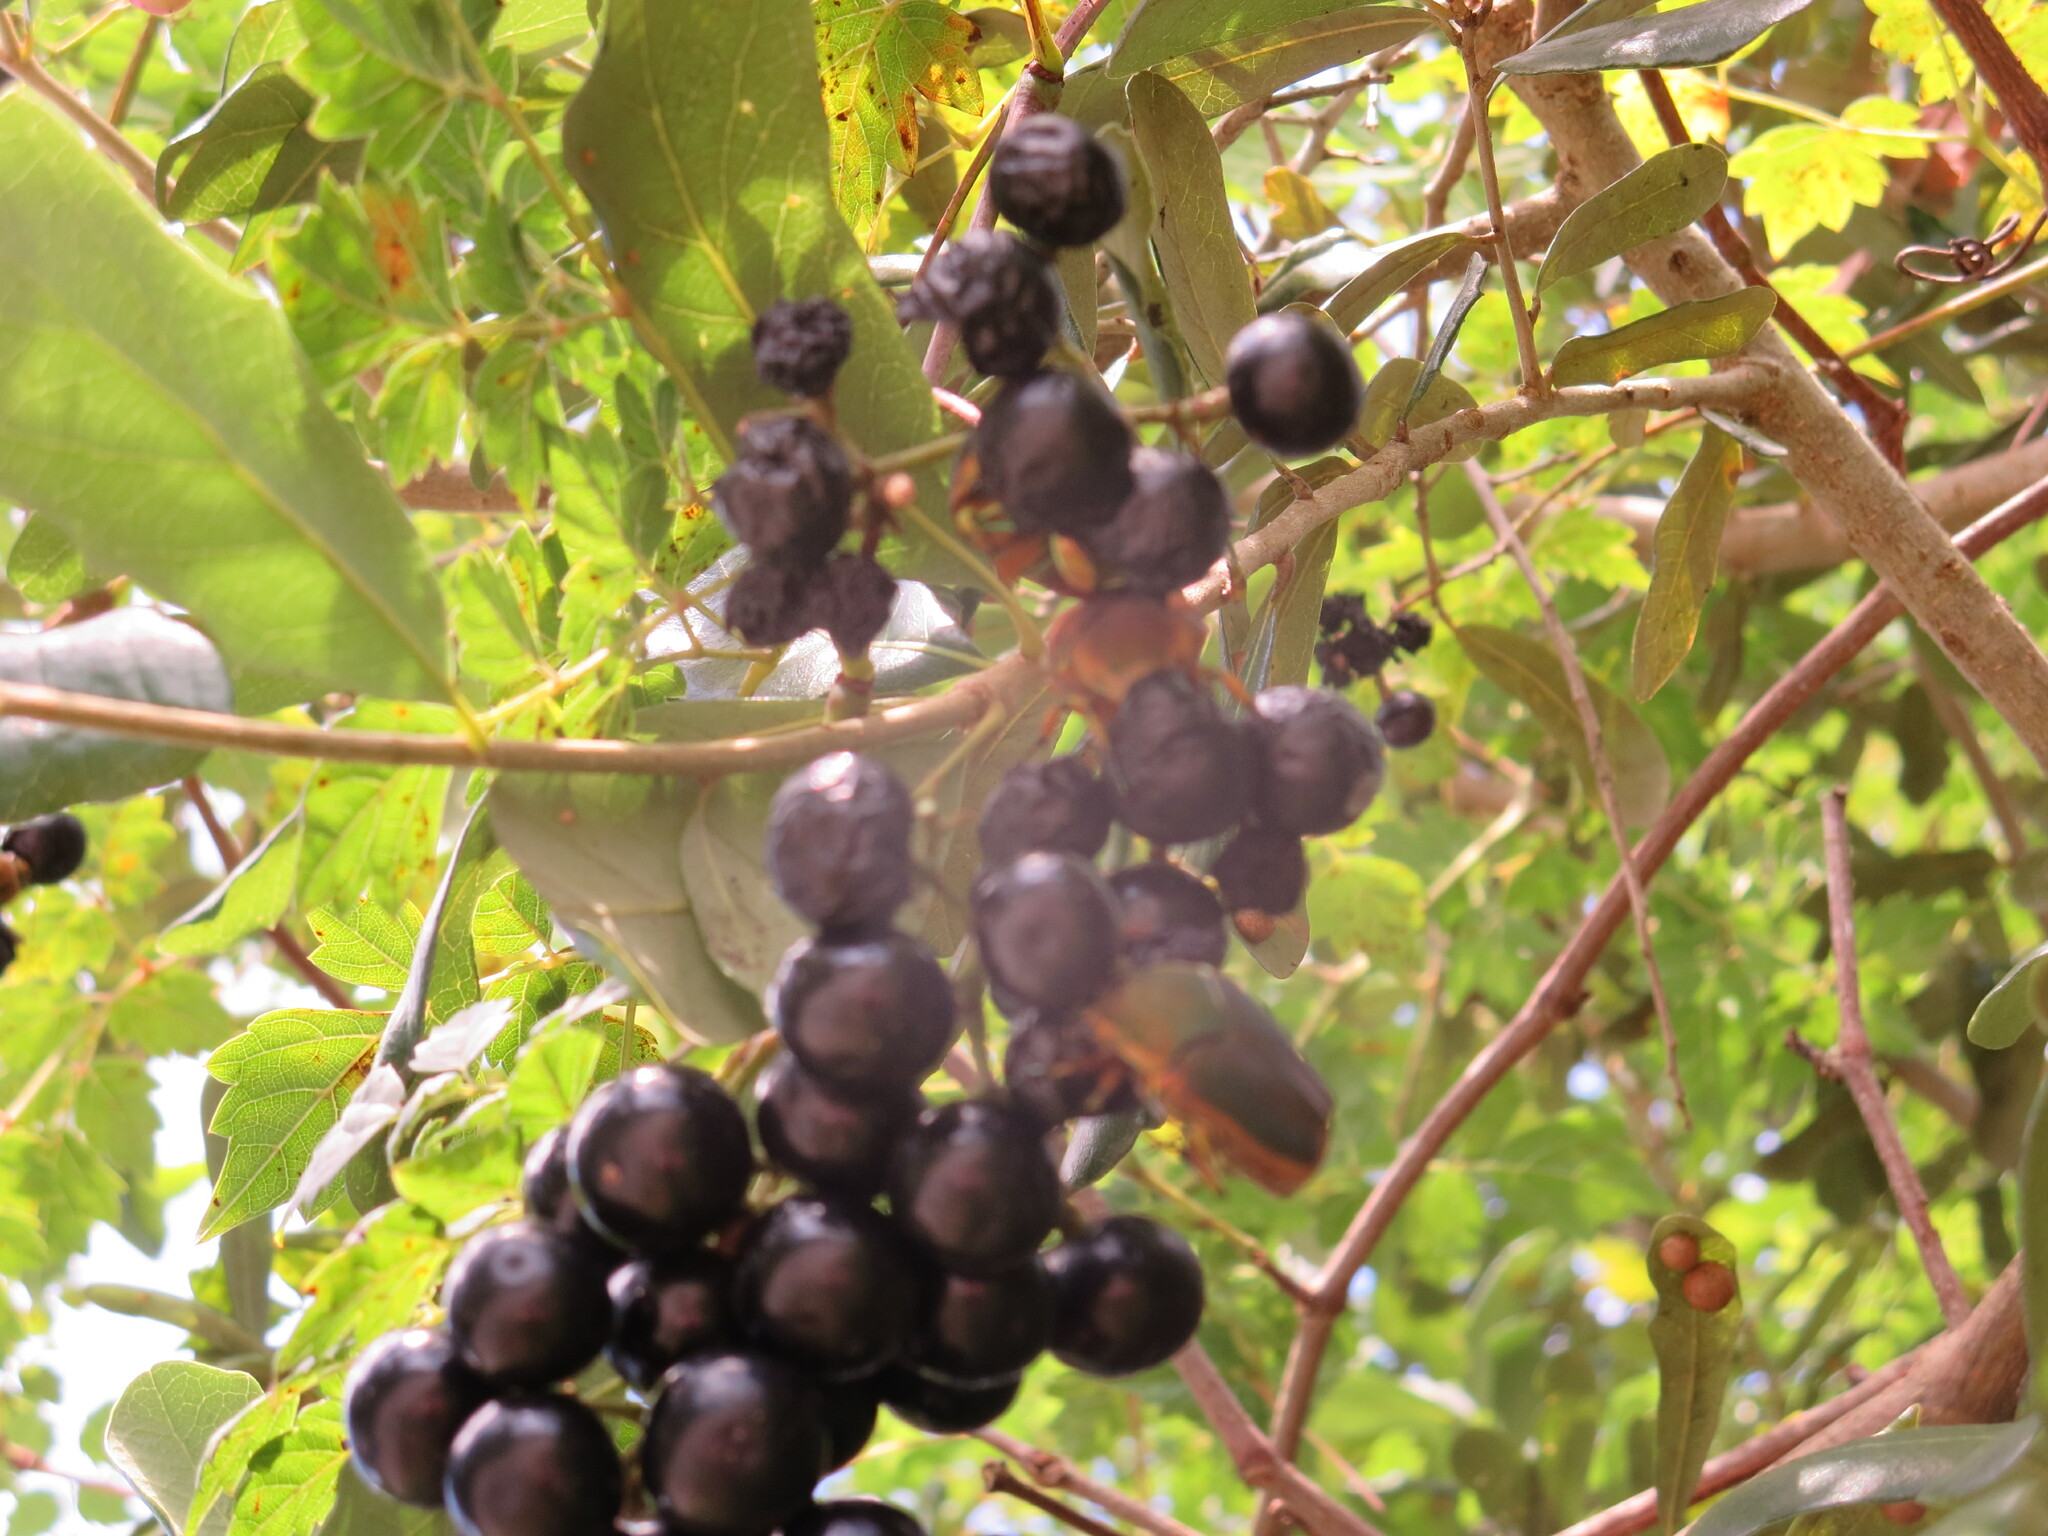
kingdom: Animalia
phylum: Arthropoda
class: Insecta
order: Coleoptera
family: Scarabaeidae
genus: Cotinis
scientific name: Cotinis nitida
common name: Common green june beetle
